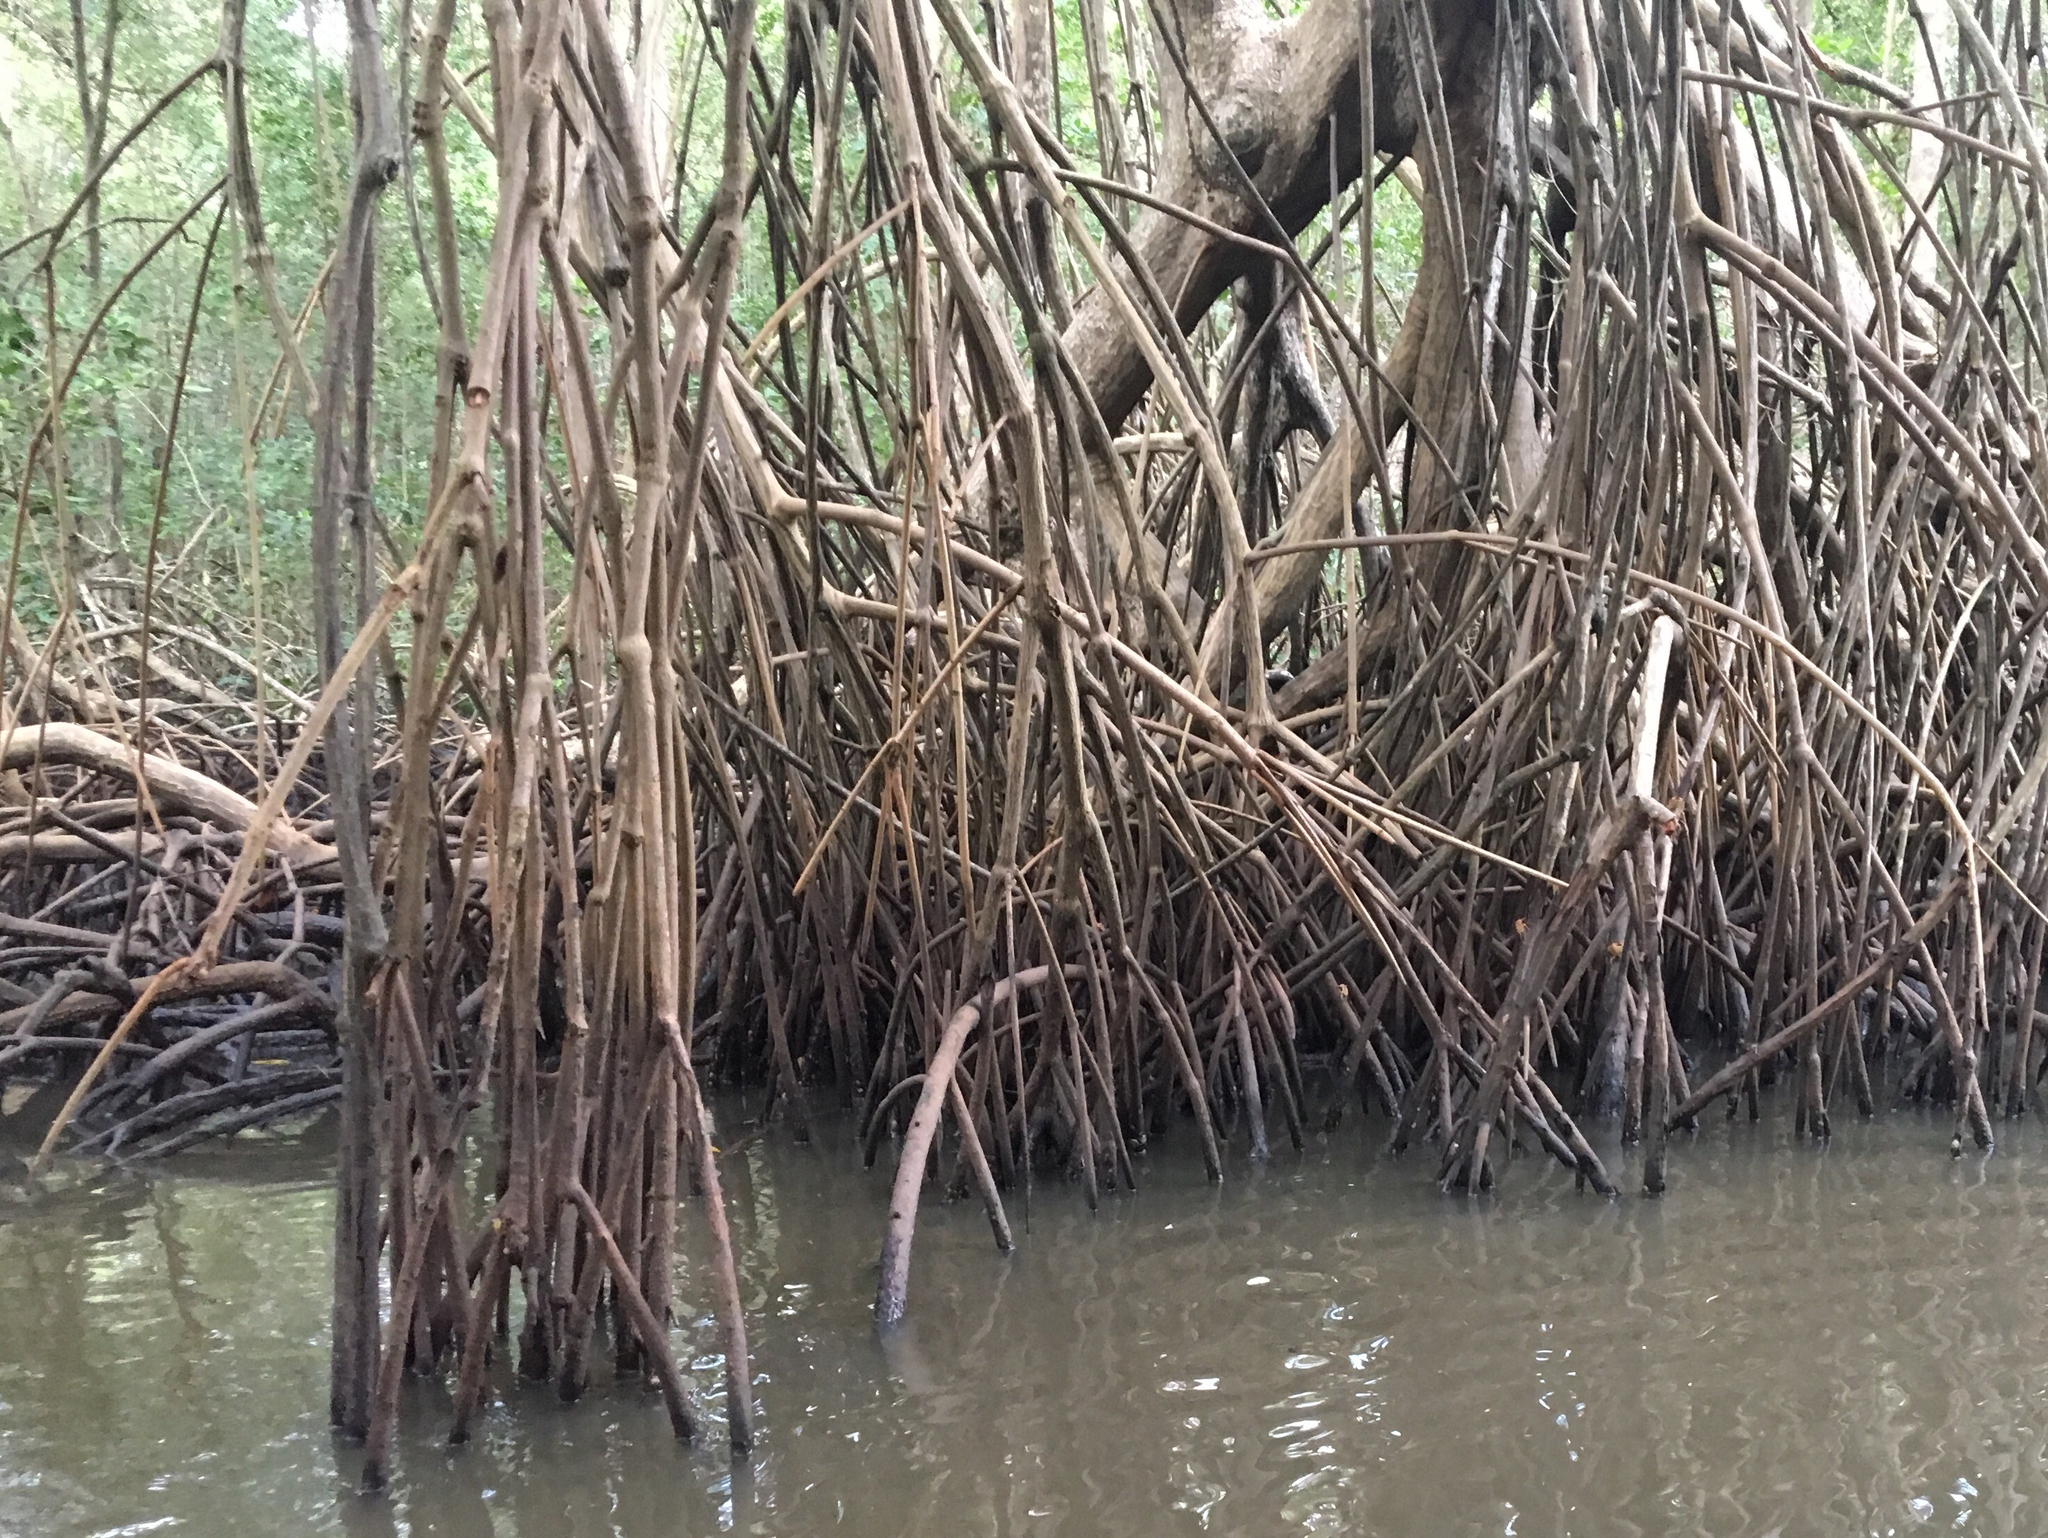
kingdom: Plantae
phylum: Tracheophyta
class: Magnoliopsida
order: Malpighiales
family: Rhizophoraceae
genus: Rhizophora
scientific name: Rhizophora mangle
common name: Red mangrove
